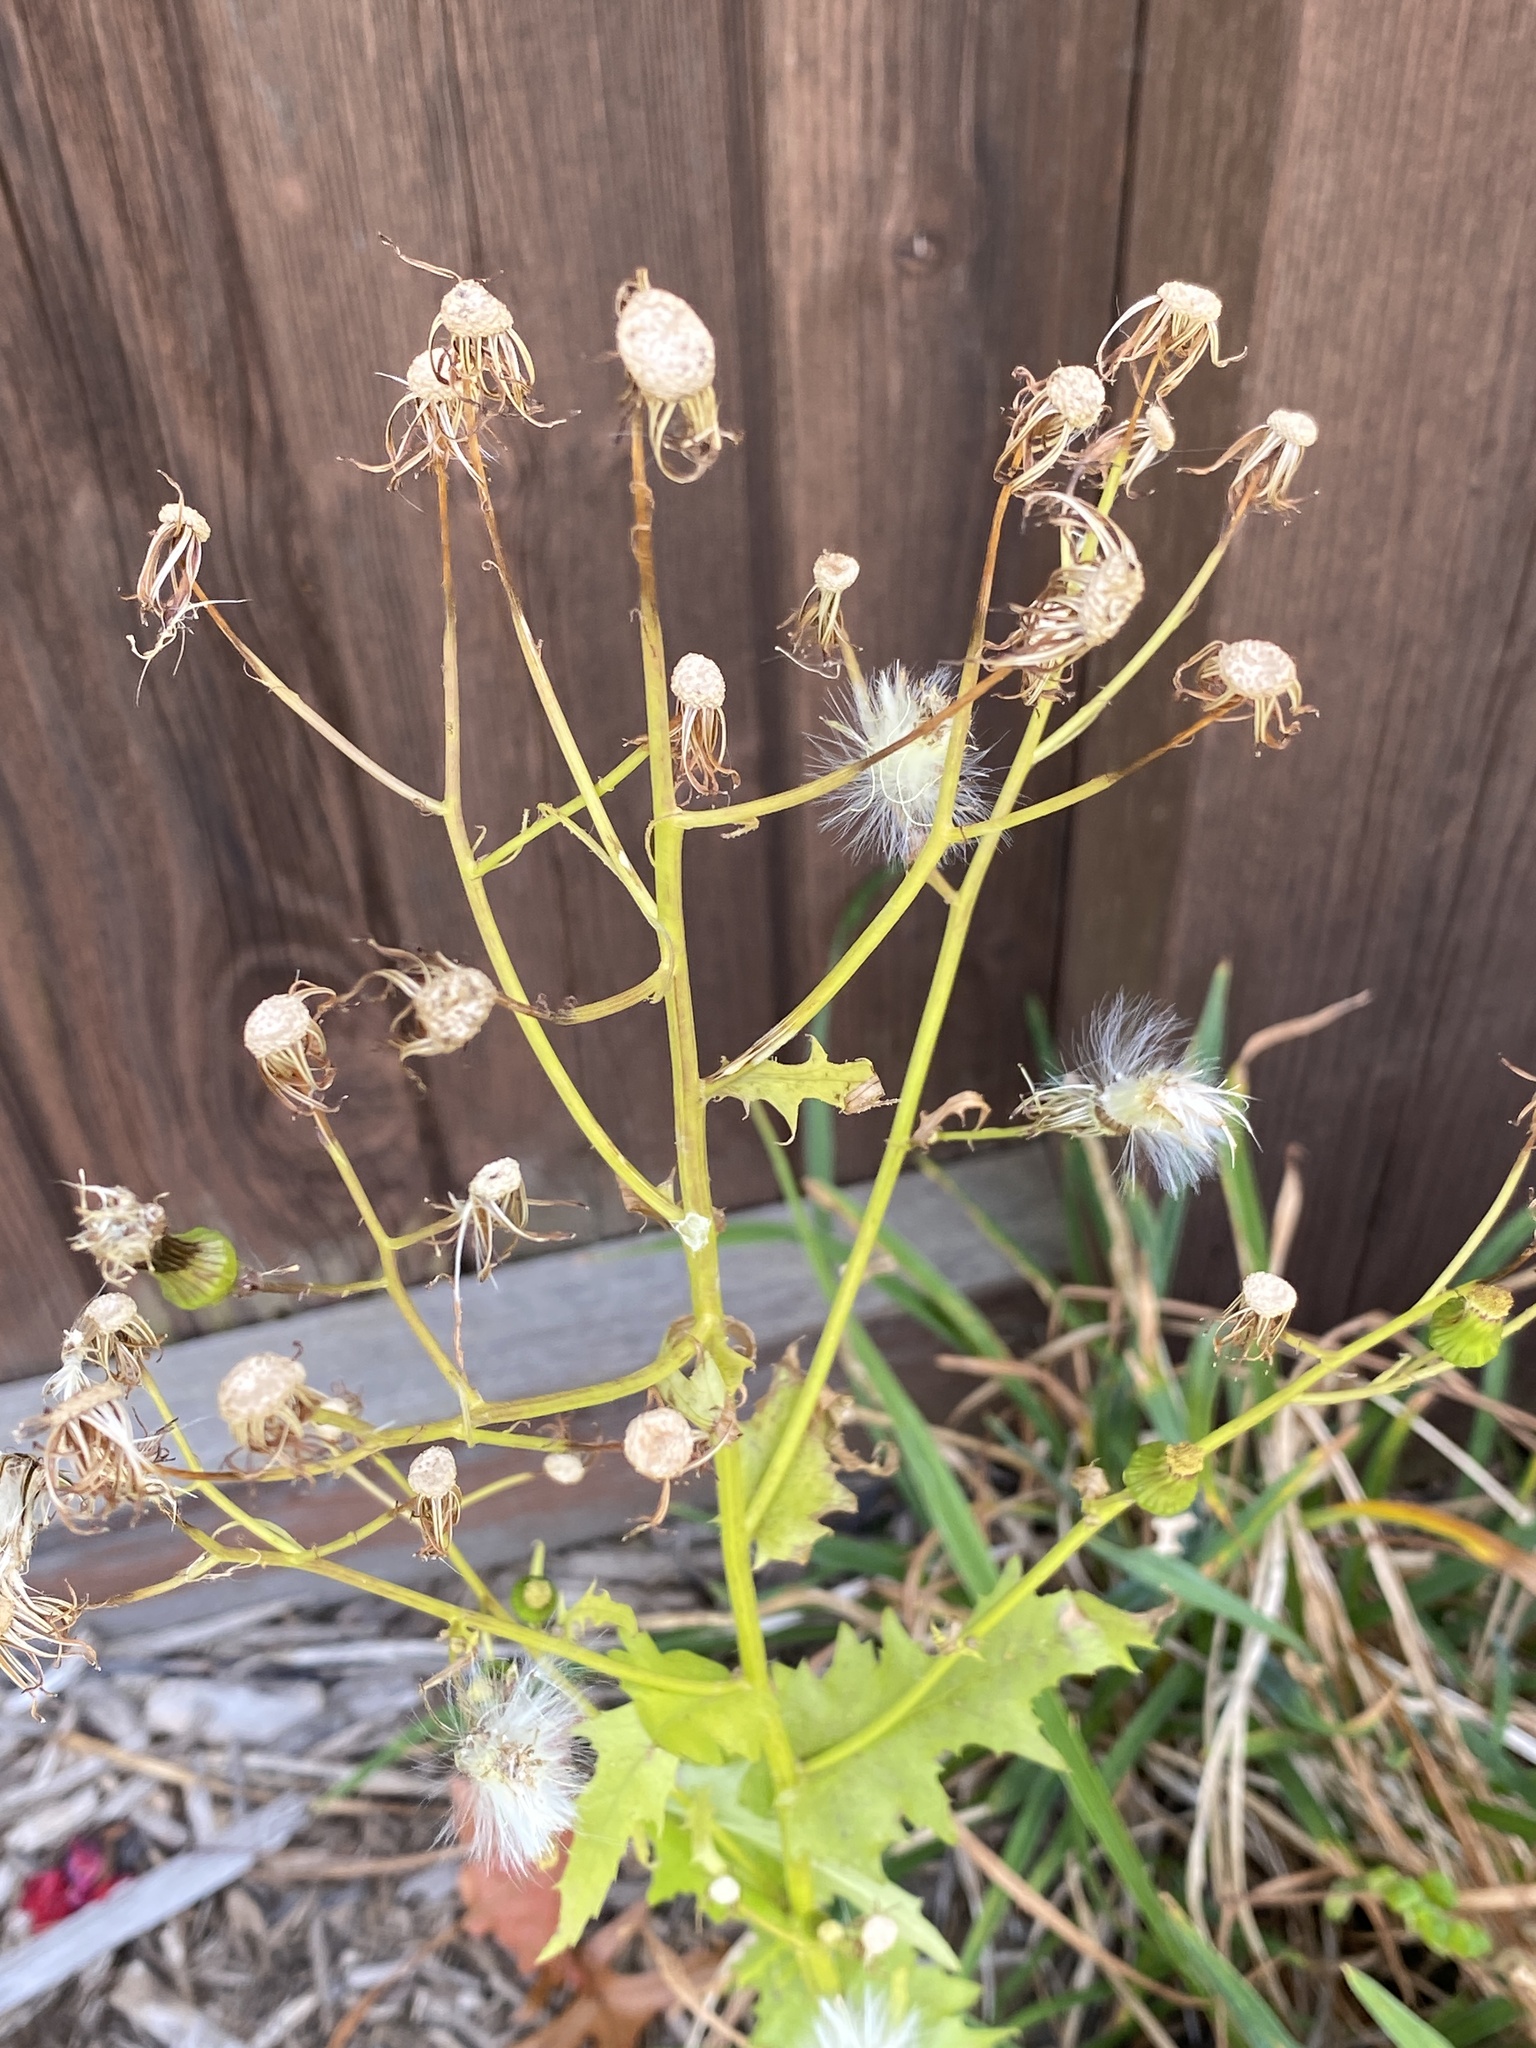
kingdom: Plantae
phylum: Tracheophyta
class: Magnoliopsida
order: Asterales
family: Asteraceae
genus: Erechtites
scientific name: Erechtites hieraciifolius
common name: American burnweed
